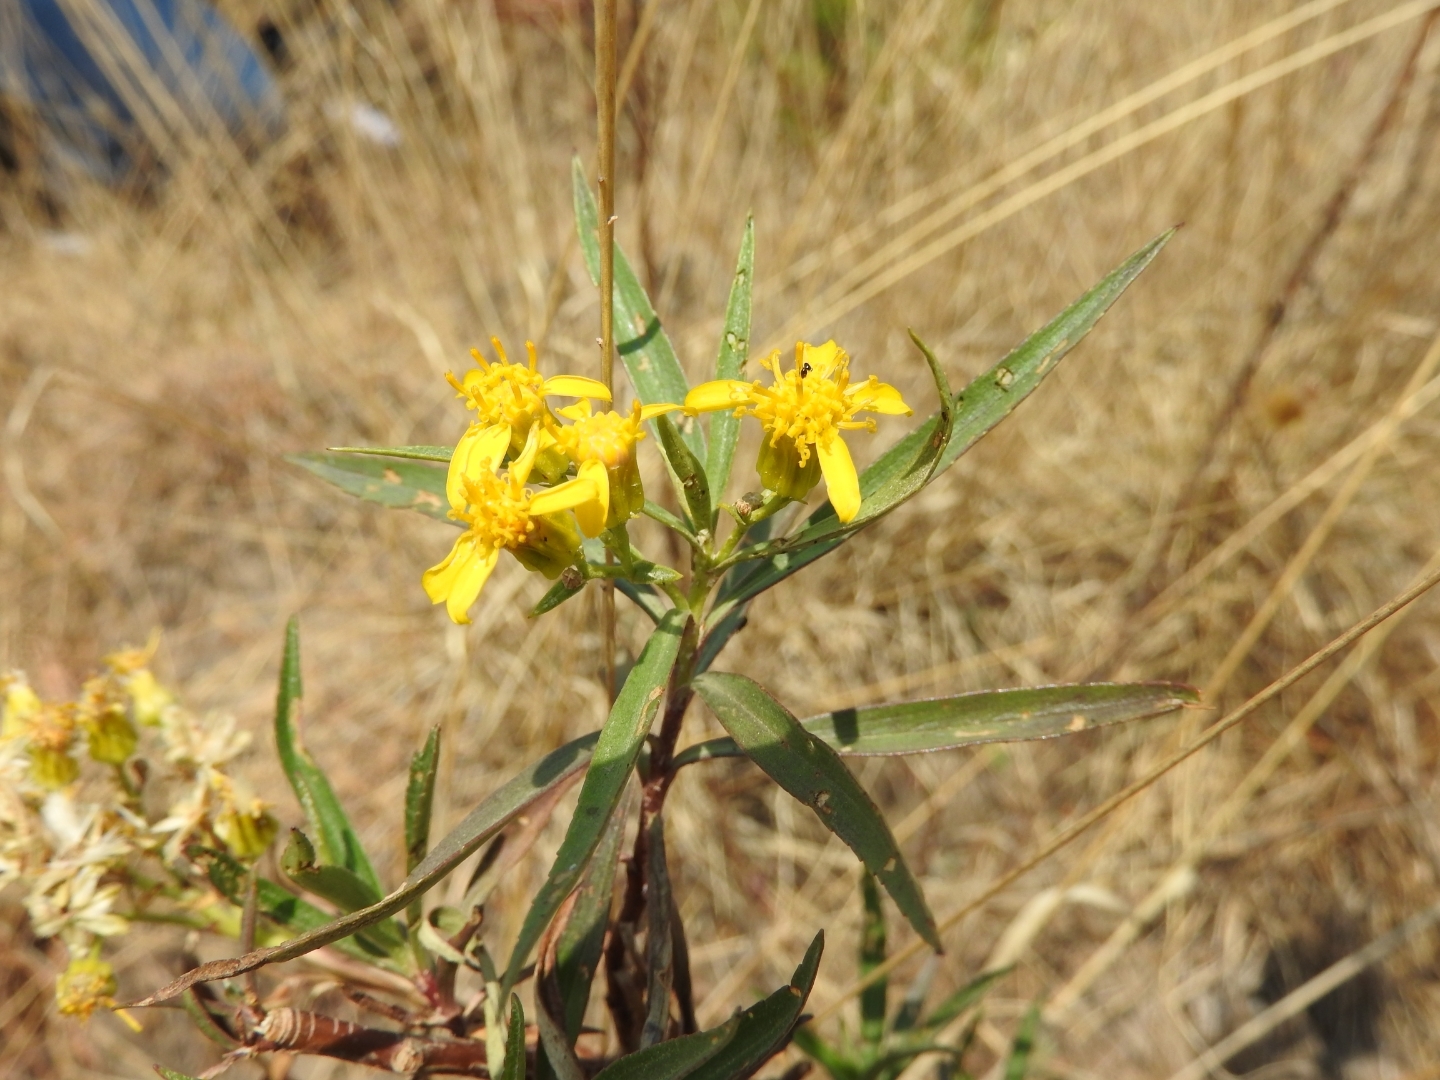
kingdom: Plantae
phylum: Tracheophyta
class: Magnoliopsida
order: Asterales
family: Asteraceae
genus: Barkleyanthus
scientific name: Barkleyanthus salicifolius
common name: Willow ragwort
